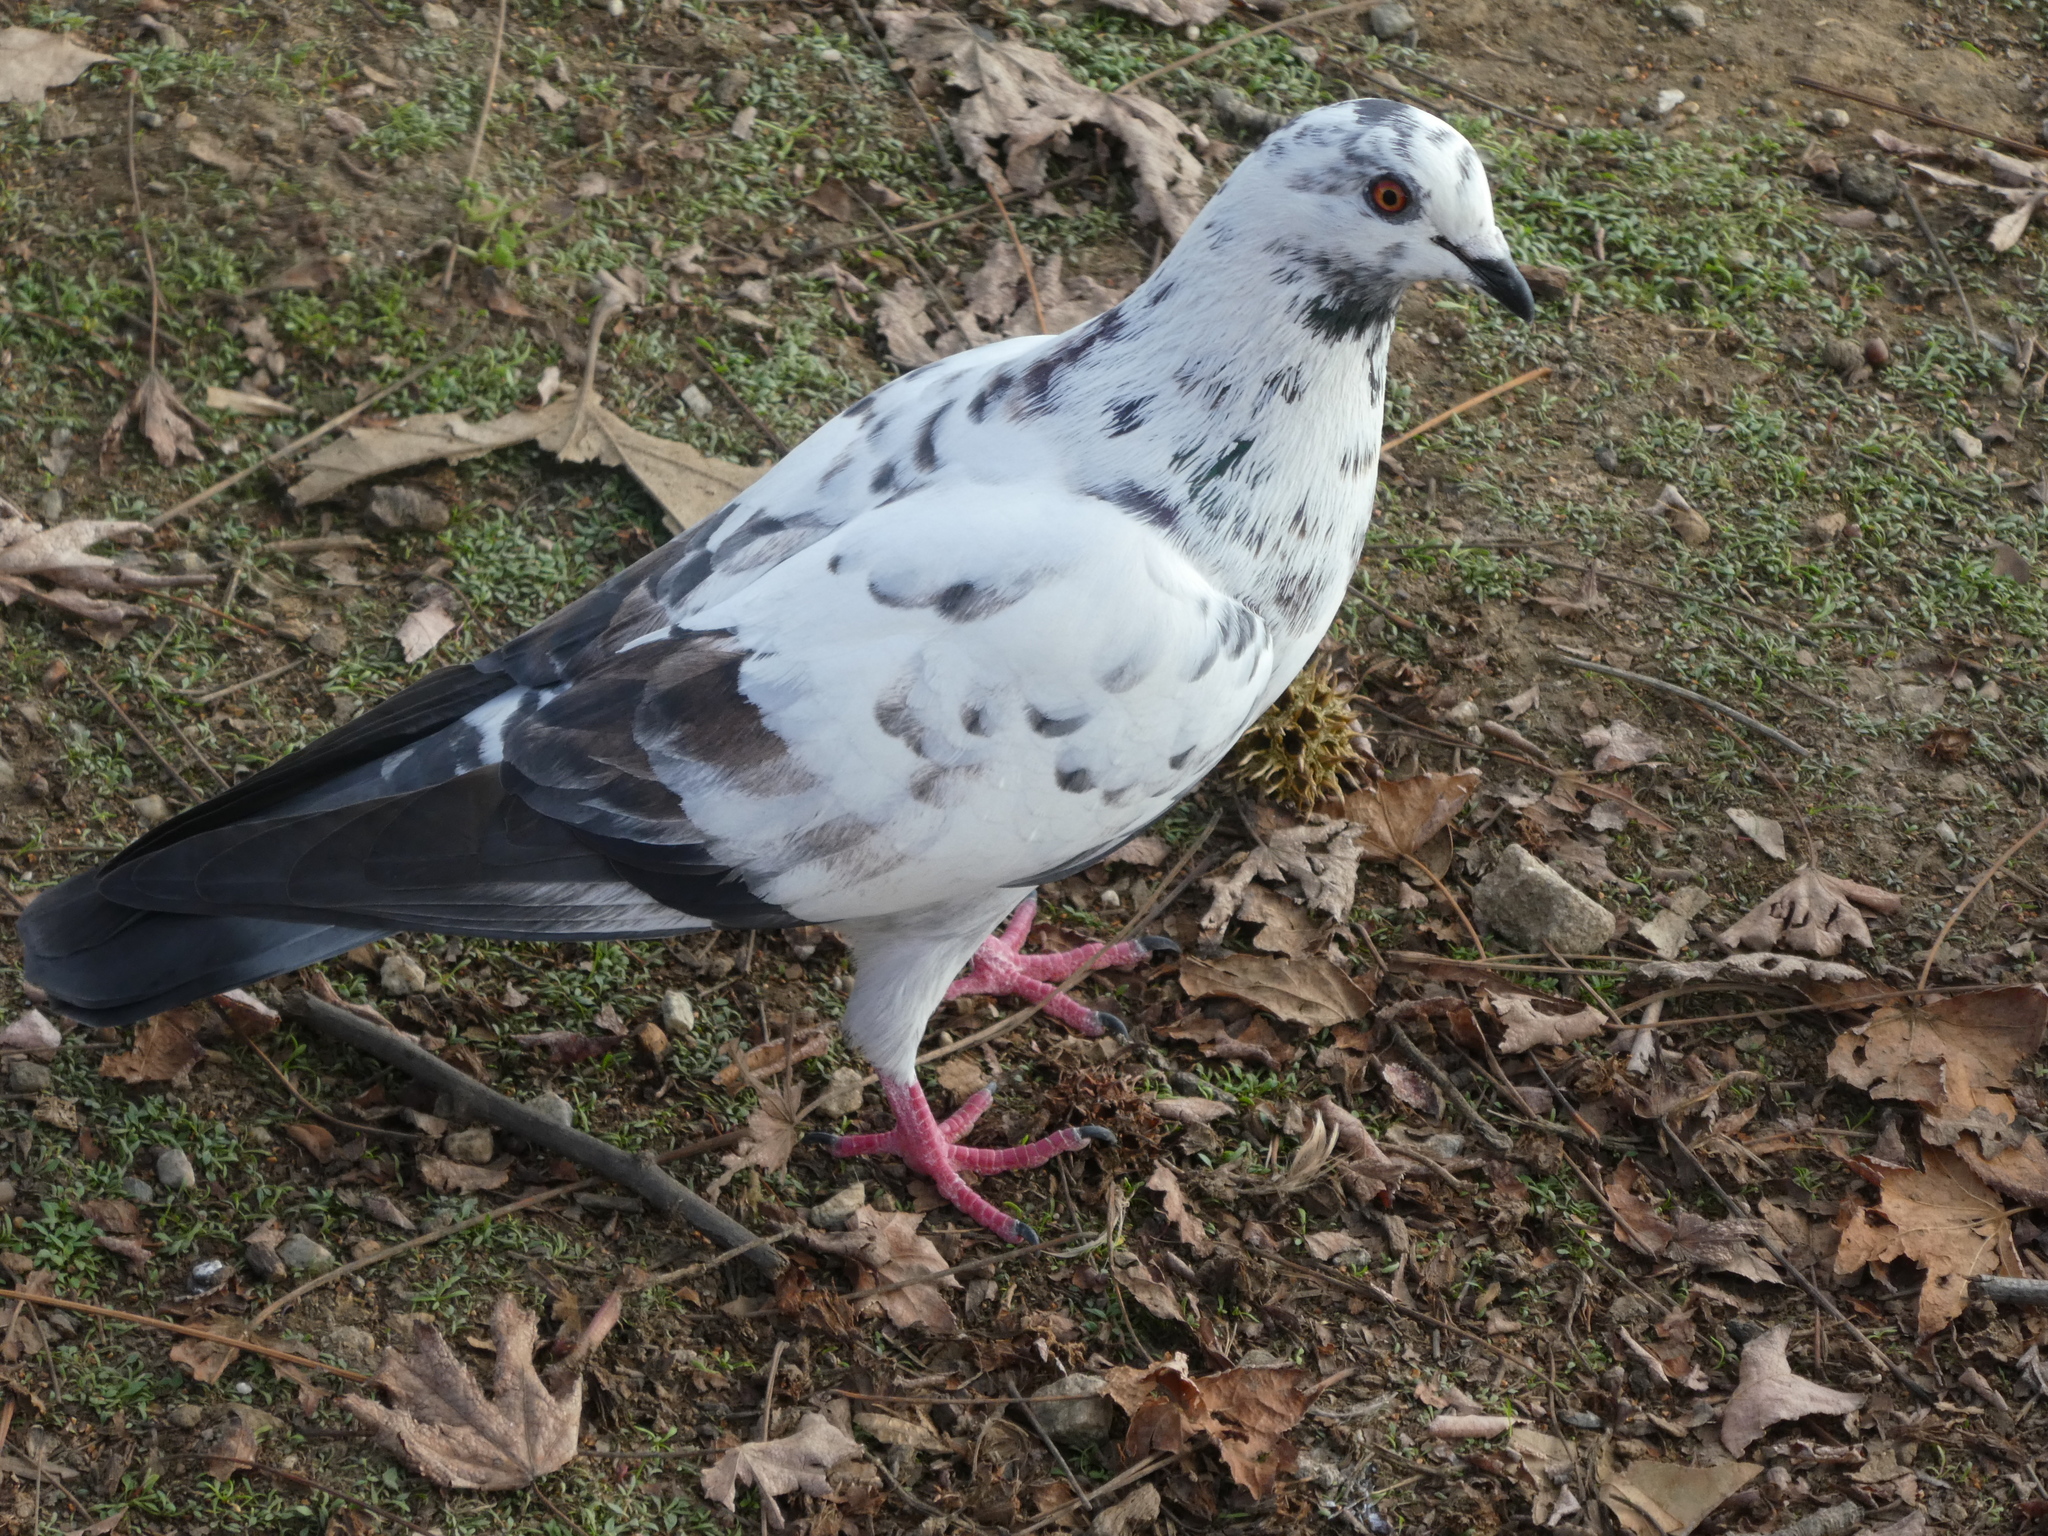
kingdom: Animalia
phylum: Chordata
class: Aves
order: Columbiformes
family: Columbidae
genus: Columba
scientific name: Columba livia
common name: Rock pigeon
